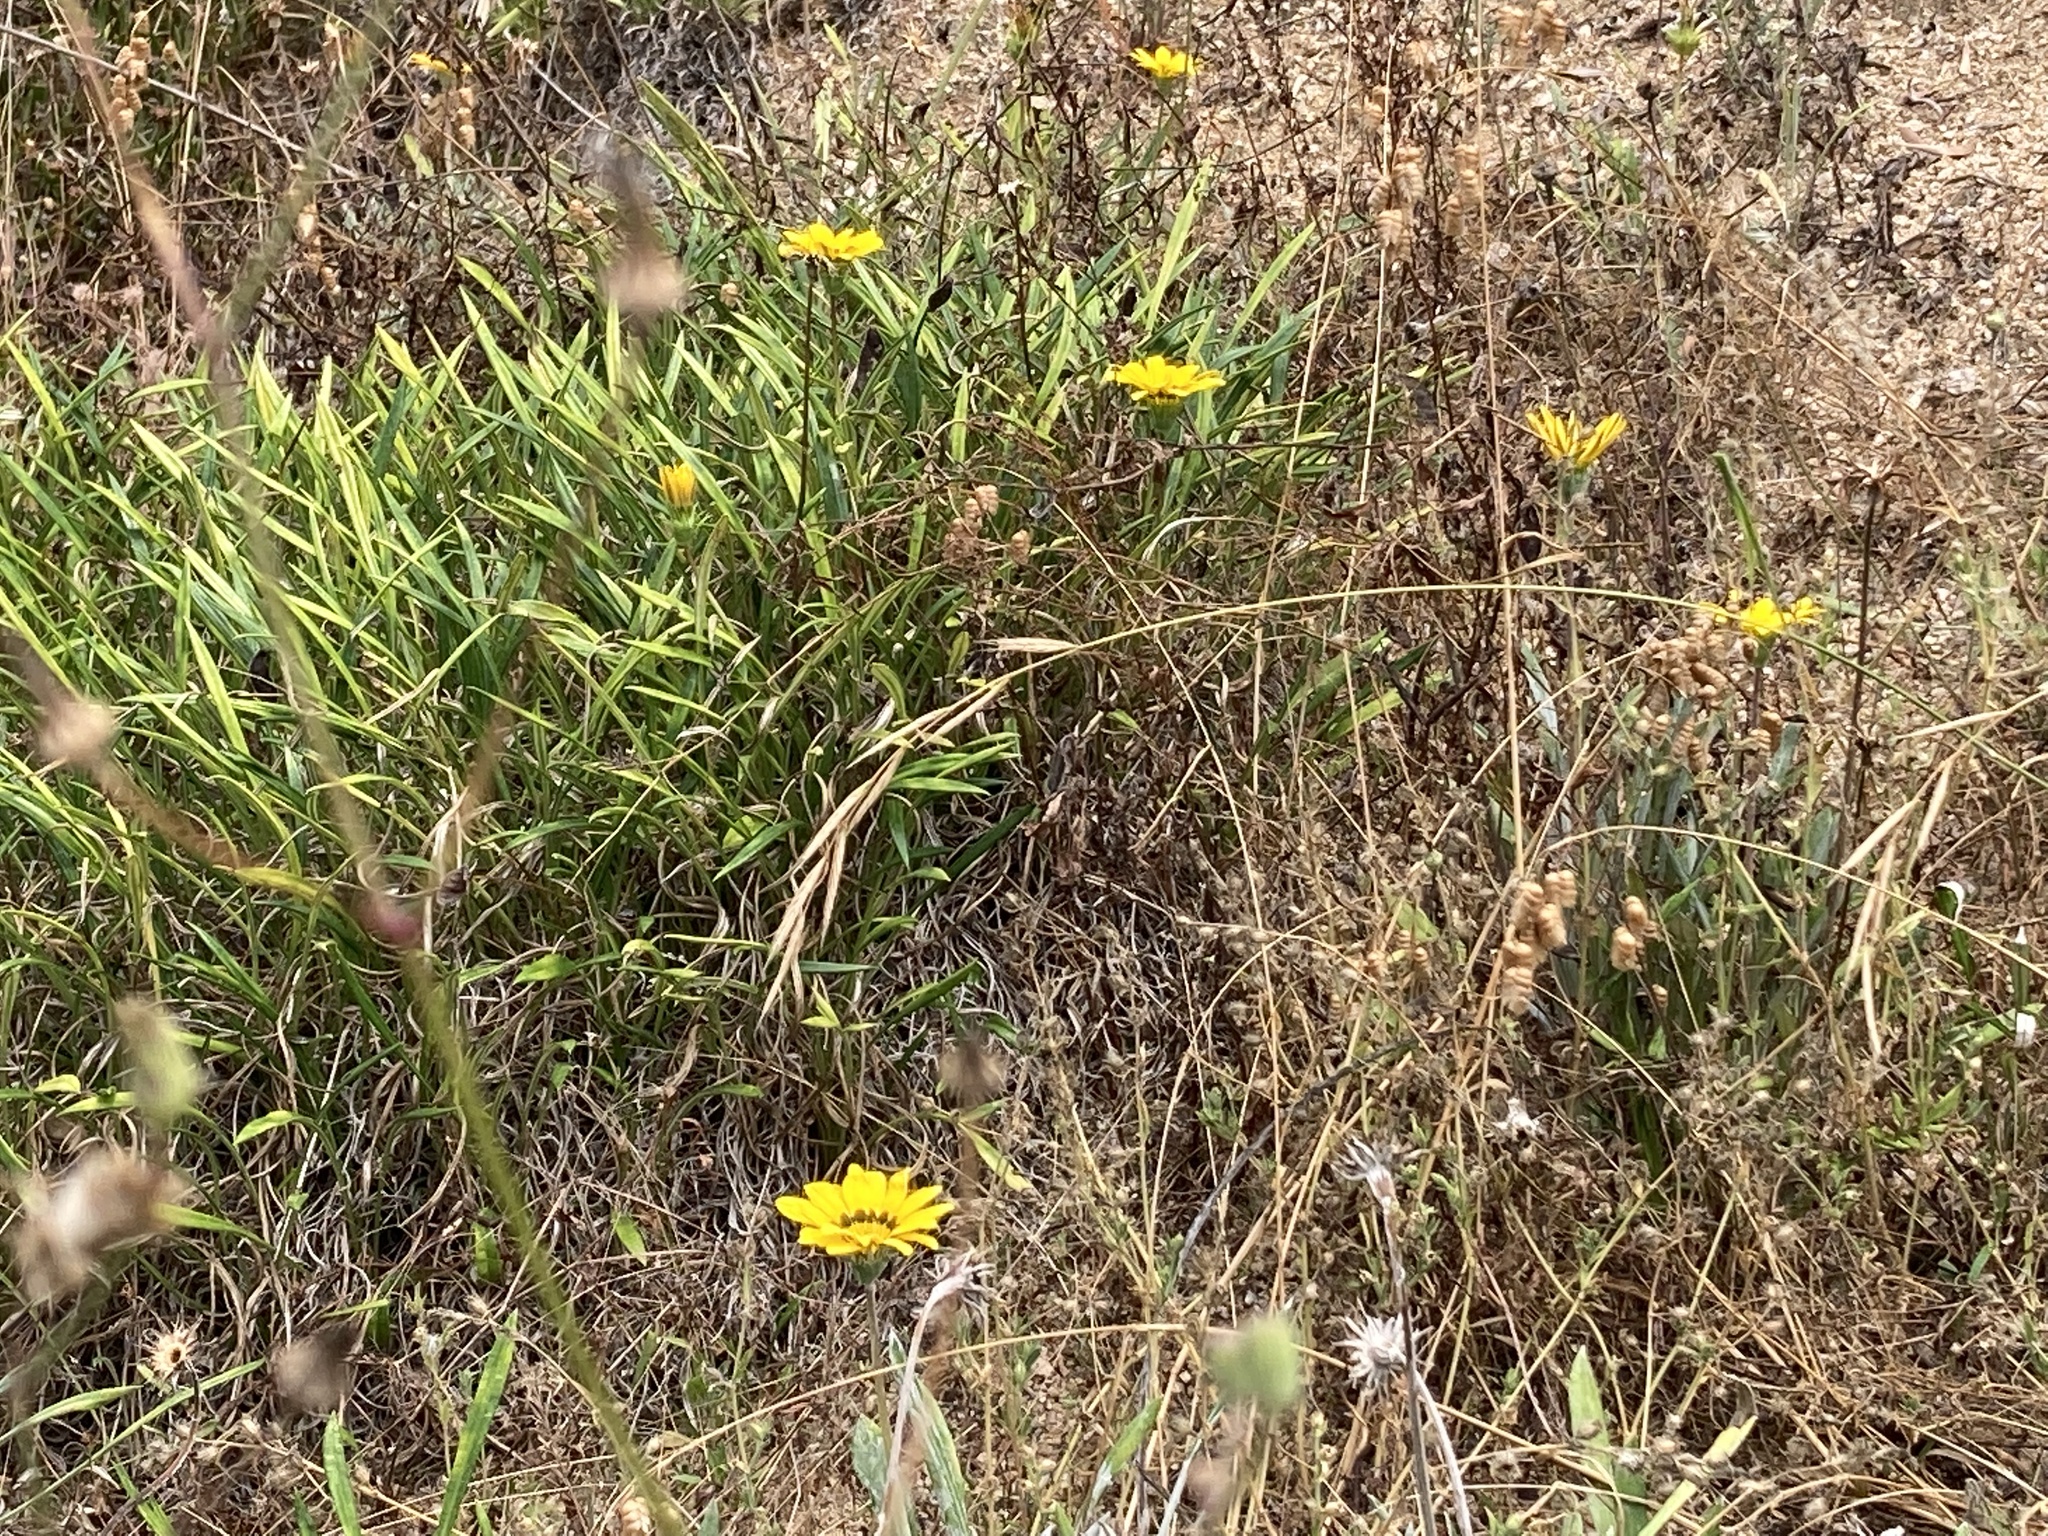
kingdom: Plantae
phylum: Tracheophyta
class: Magnoliopsida
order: Asterales
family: Asteraceae
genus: Gazania
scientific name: Gazania rigens
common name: Treasureflower
